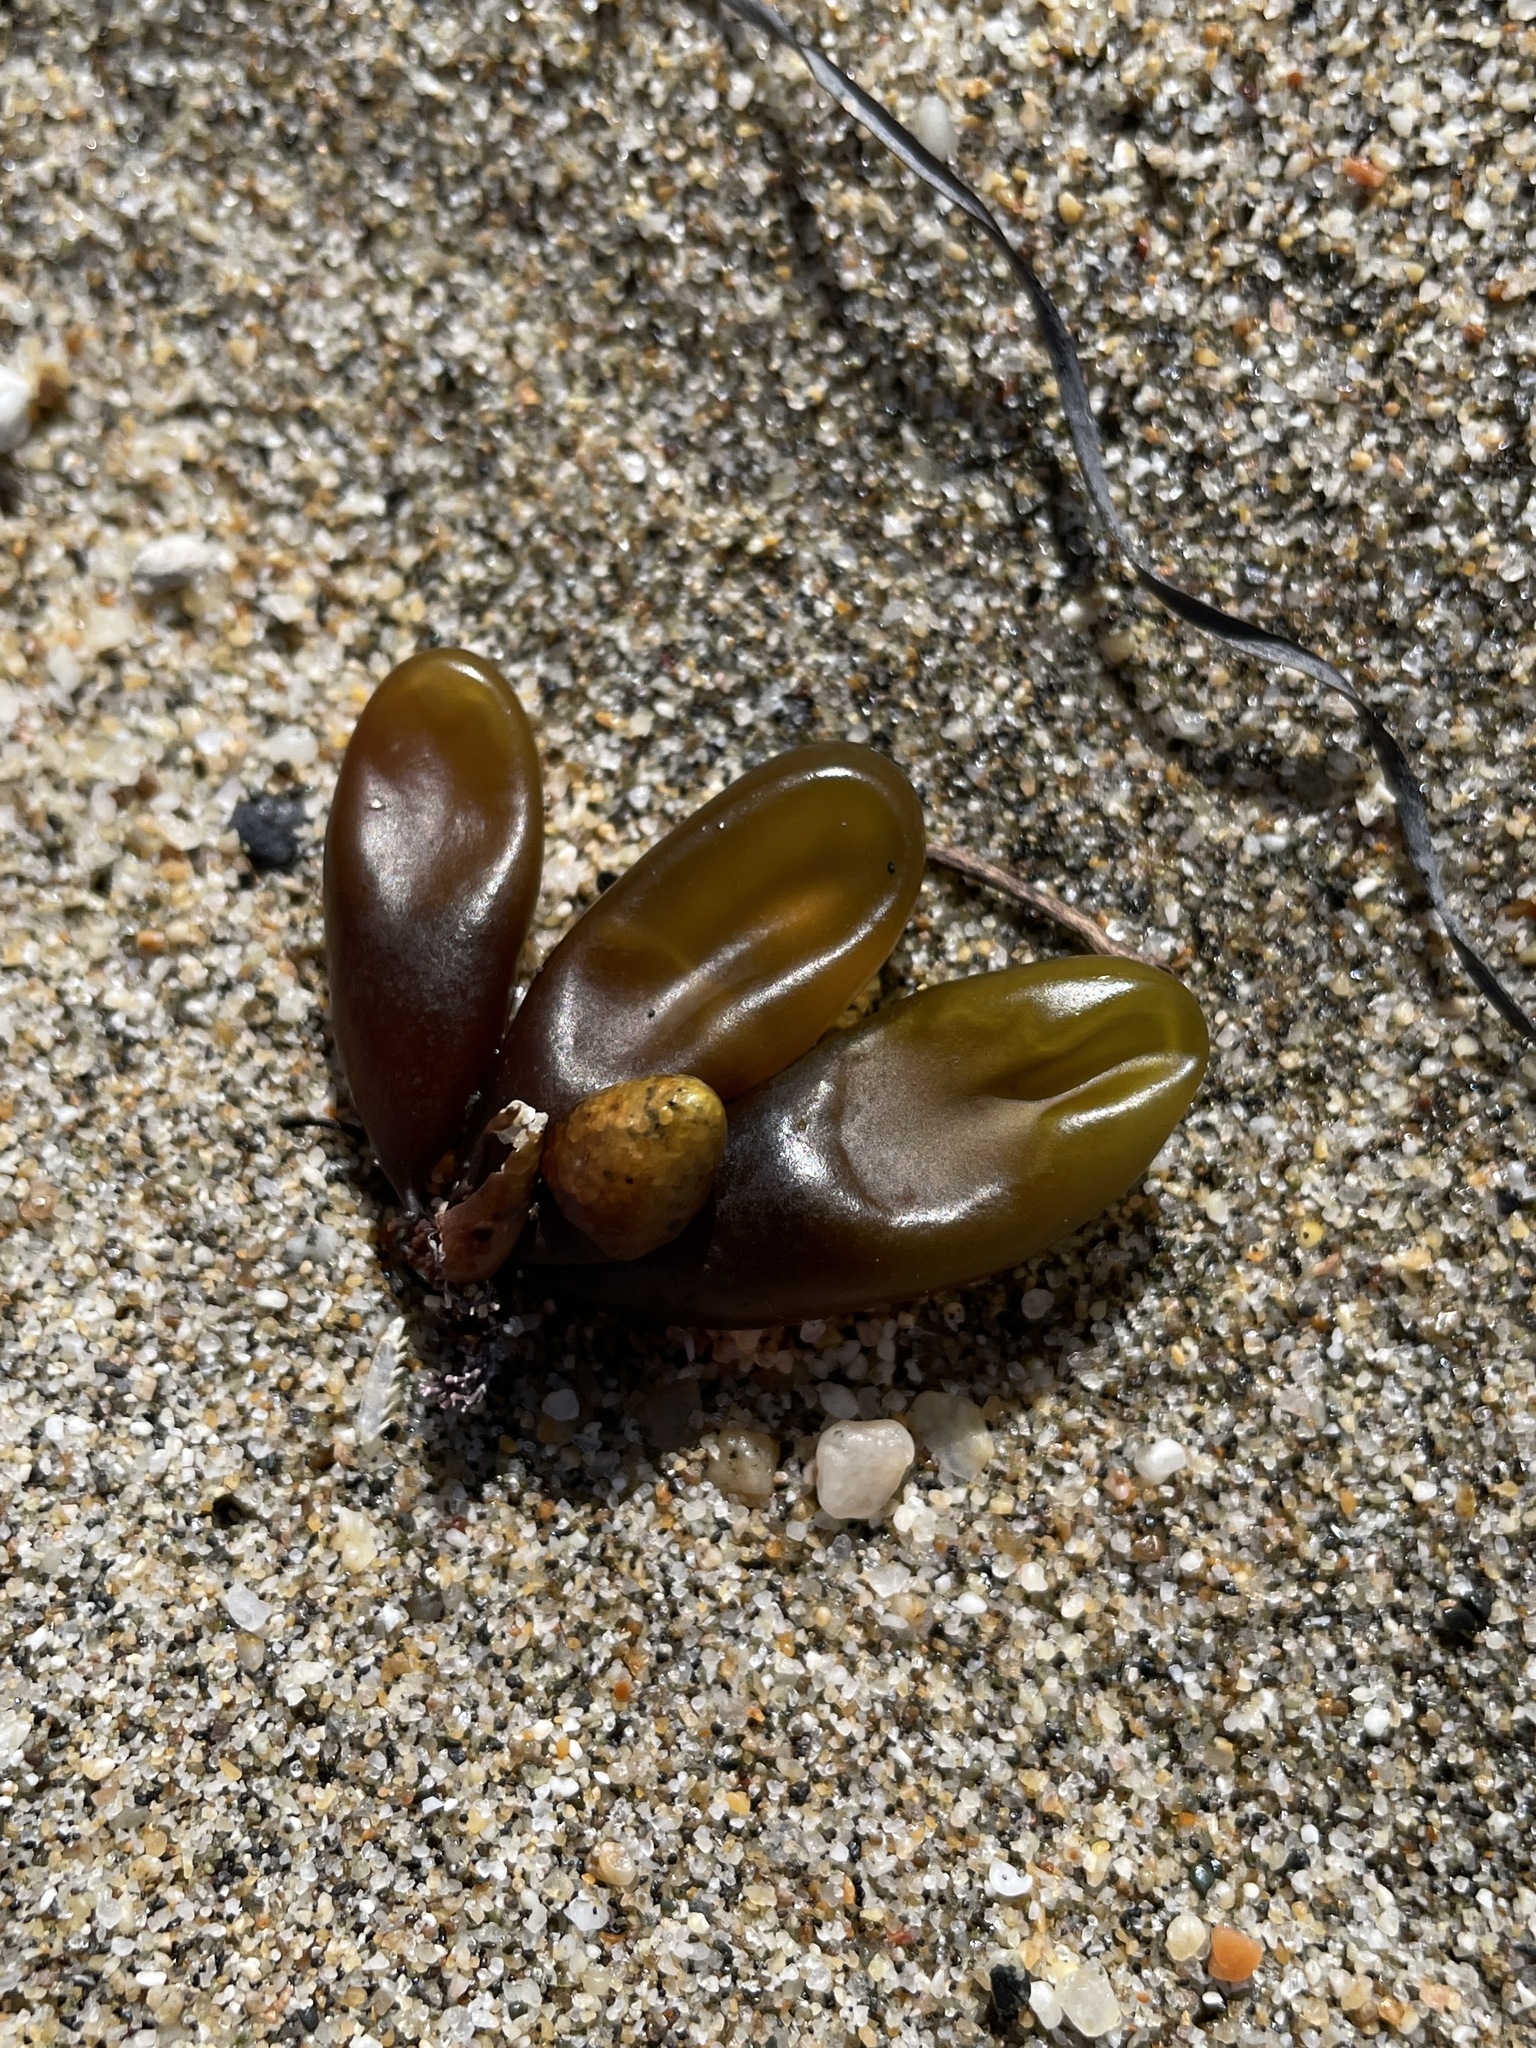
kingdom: Plantae
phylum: Rhodophyta
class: Florideophyceae
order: Palmariales
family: Palmariaceae
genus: Halosaccion
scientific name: Halosaccion glandiforme
